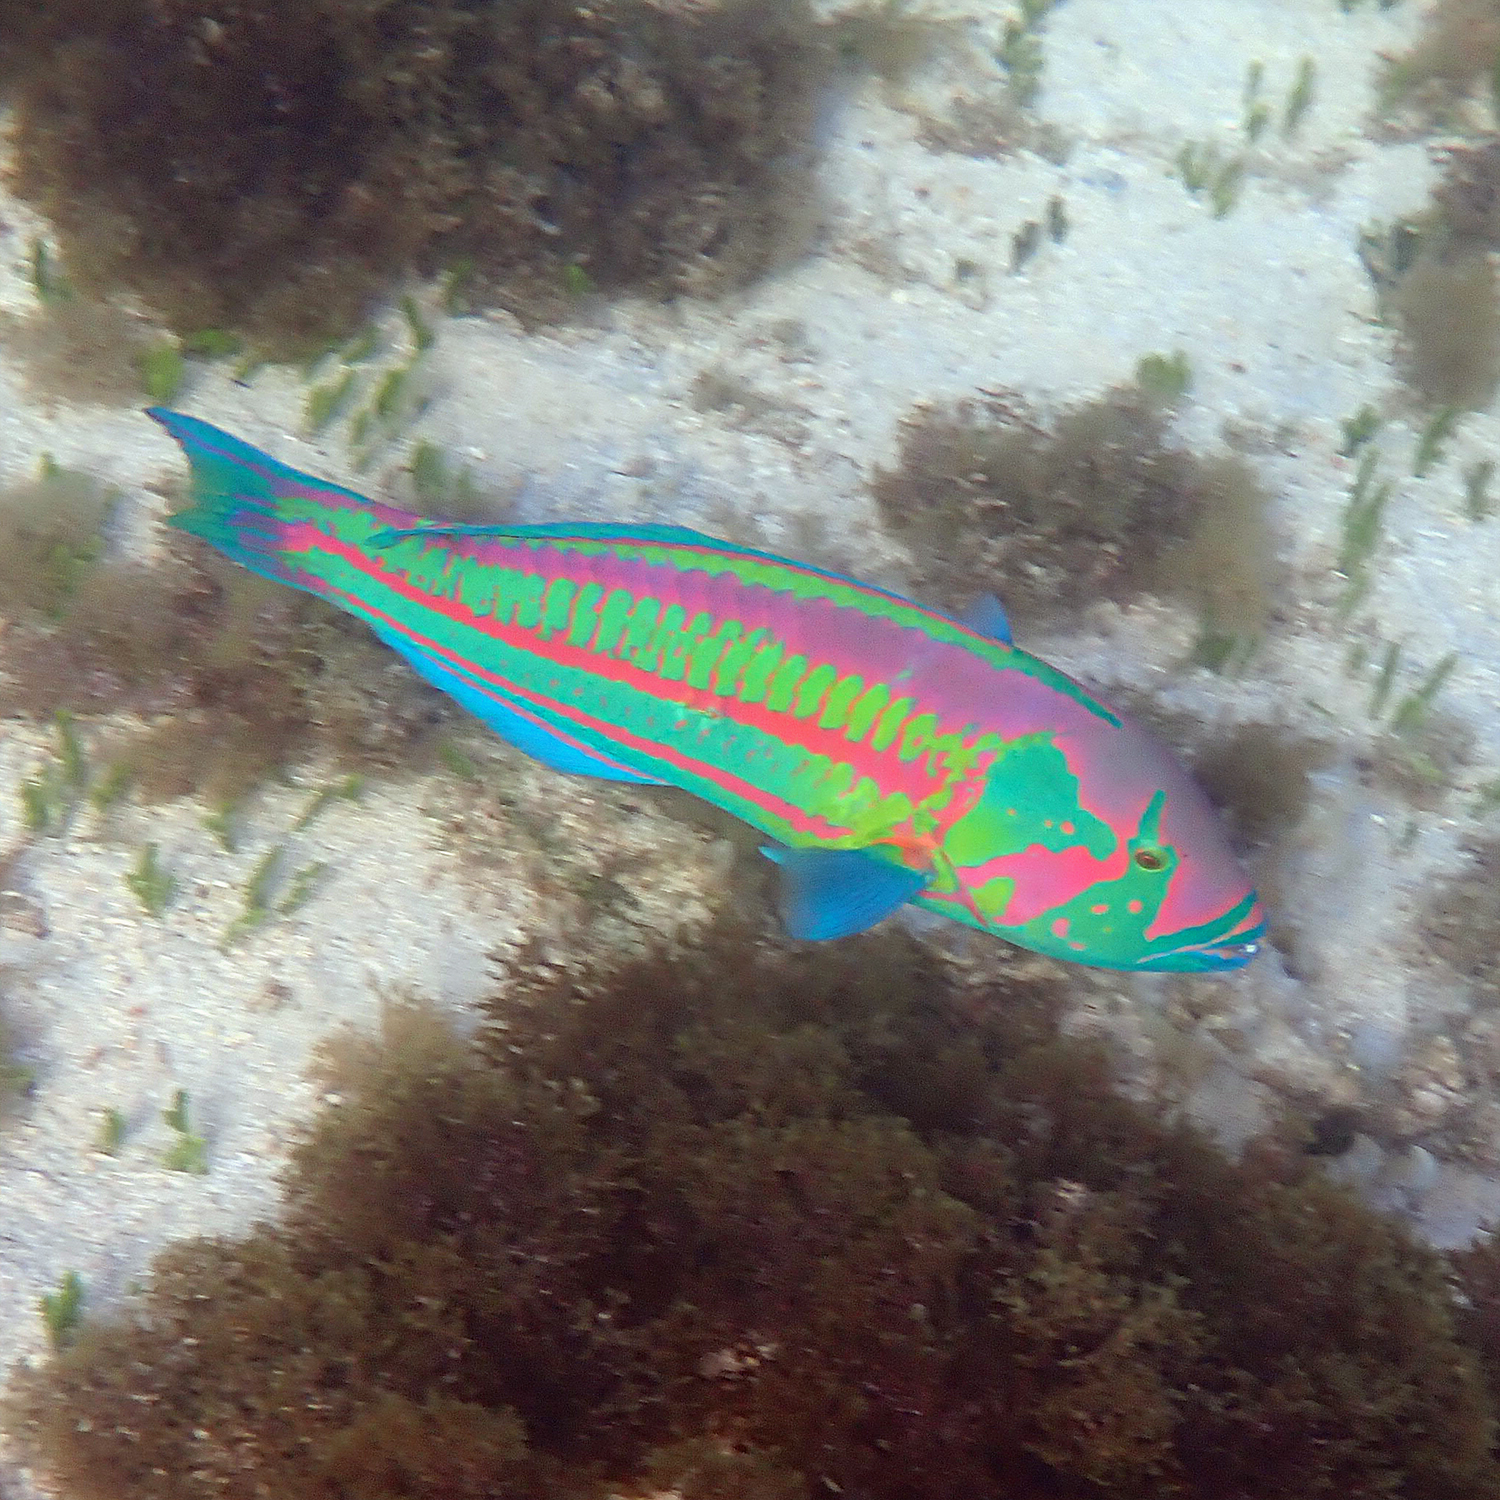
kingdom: Animalia
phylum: Chordata
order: Perciformes
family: Labridae
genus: Thalassoma
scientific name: Thalassoma purpureum
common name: Parrotfish
